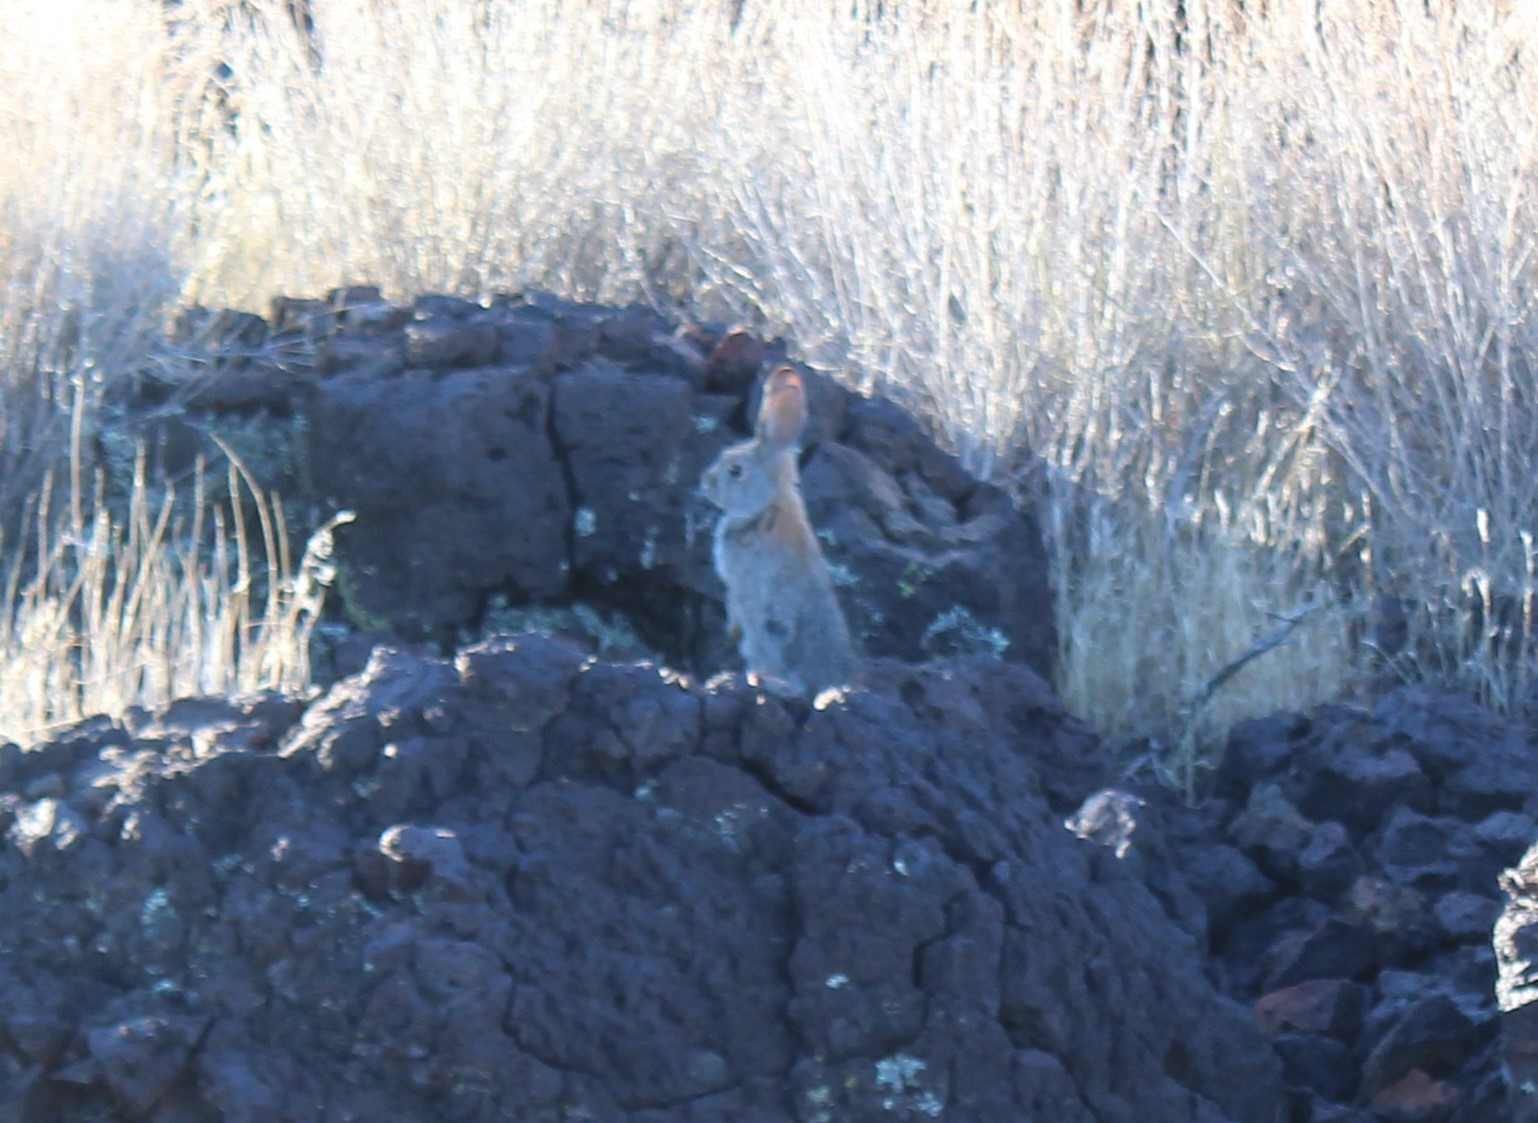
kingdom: Animalia
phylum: Chordata
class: Mammalia
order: Lagomorpha
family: Leporidae
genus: Sylvilagus
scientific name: Sylvilagus audubonii
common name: Desert cottontail
